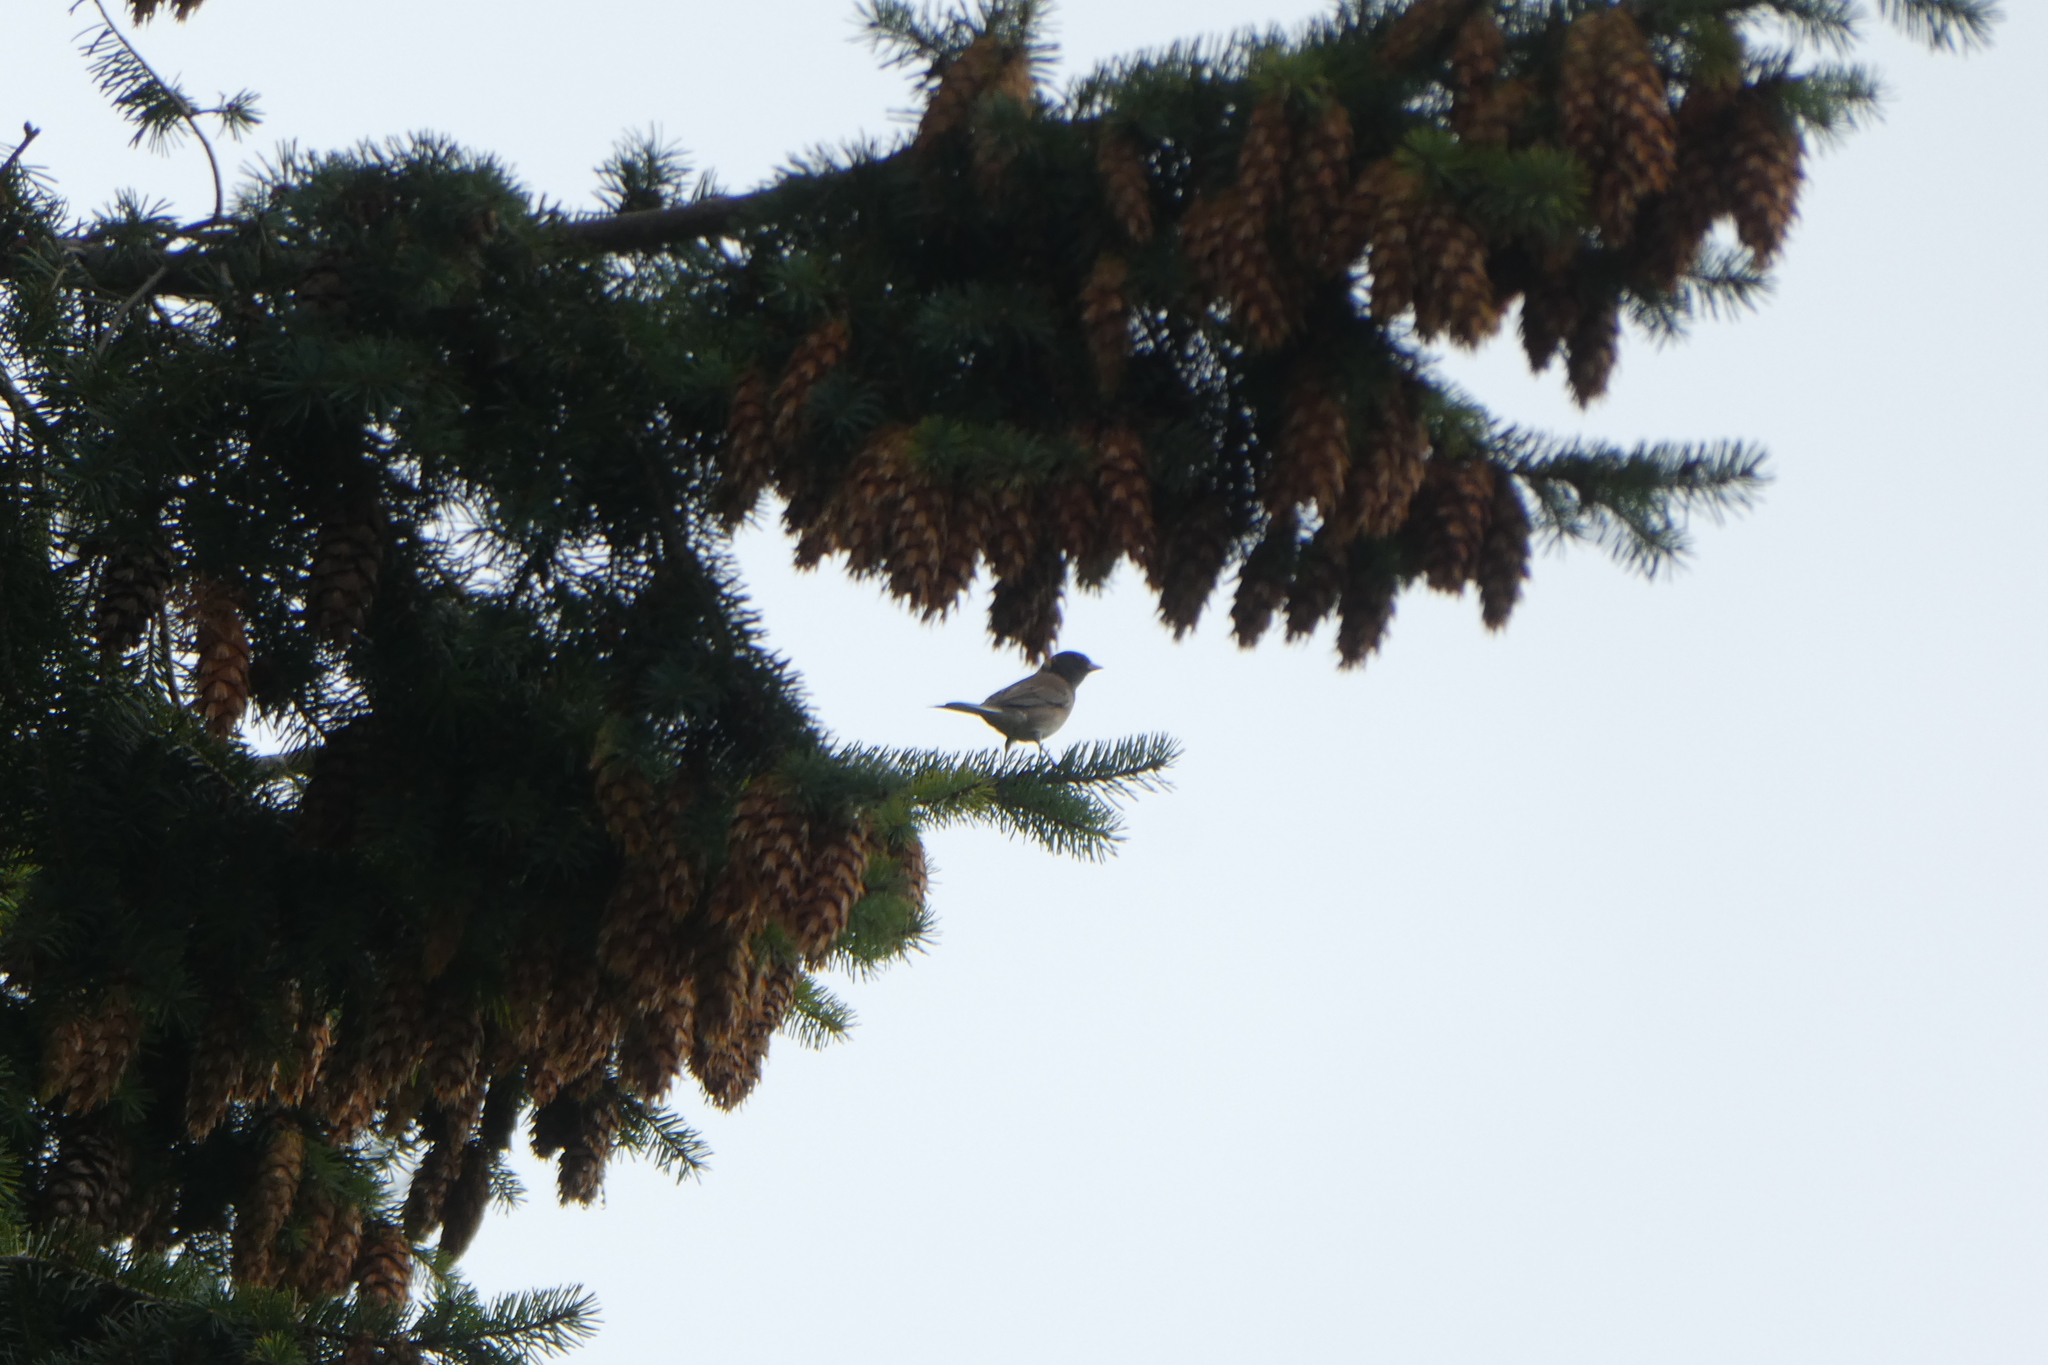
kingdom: Animalia
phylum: Chordata
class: Aves
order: Passeriformes
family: Passerellidae
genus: Junco
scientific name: Junco hyemalis
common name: Dark-eyed junco
